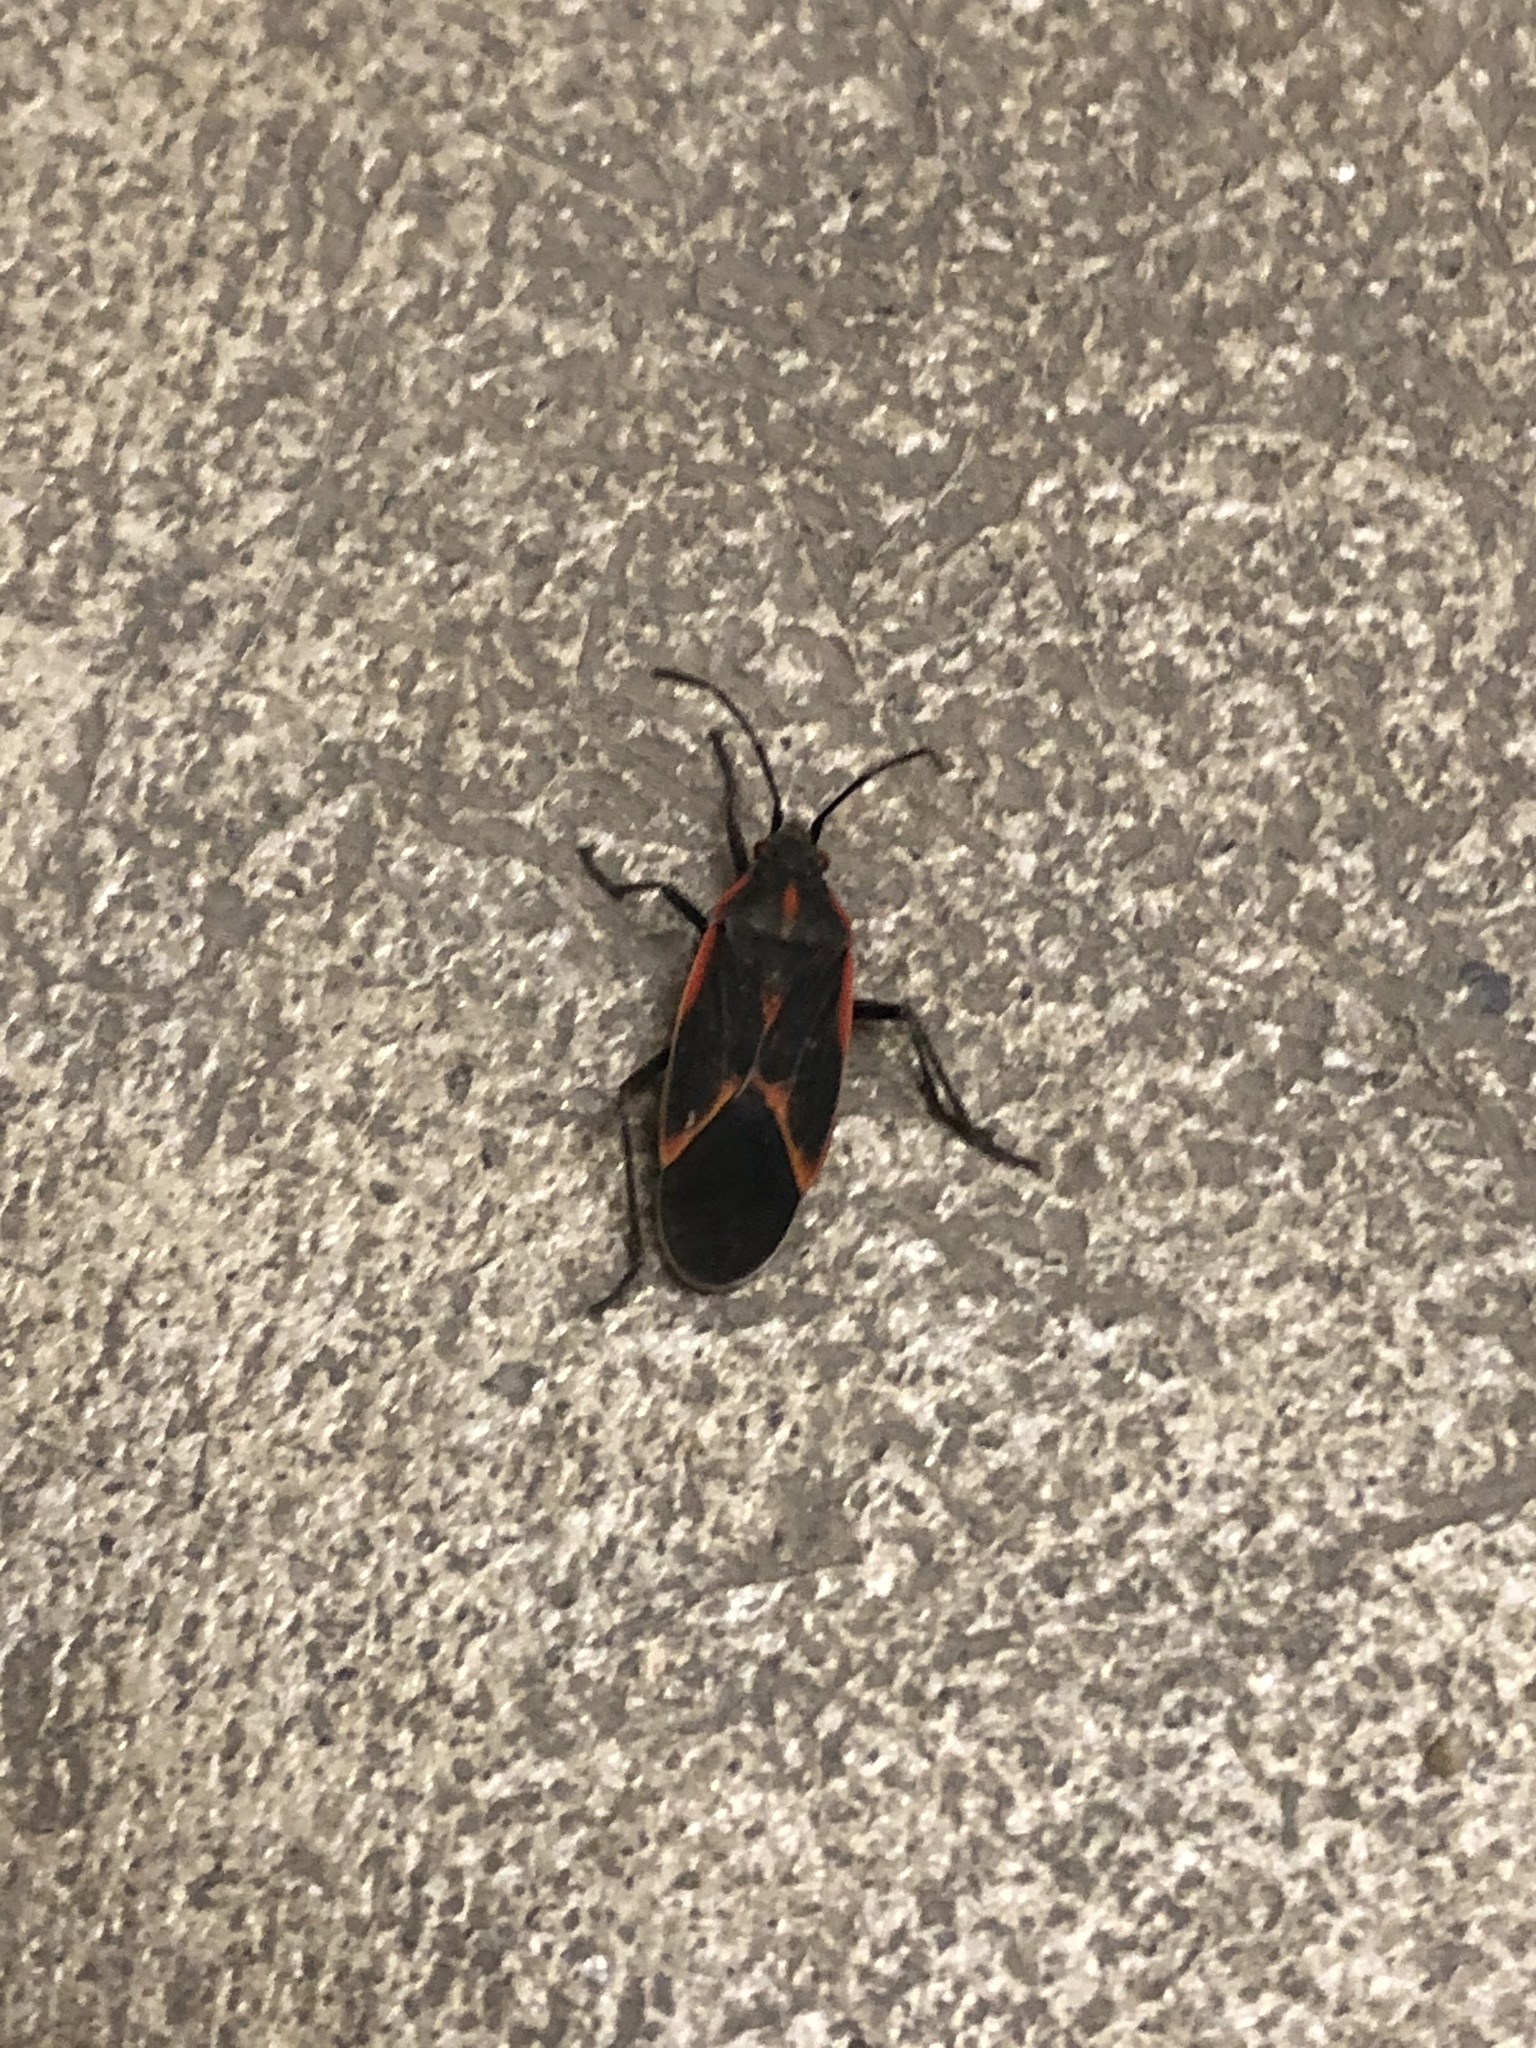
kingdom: Animalia
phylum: Arthropoda
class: Insecta
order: Hemiptera
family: Rhopalidae
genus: Boisea
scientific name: Boisea trivittata
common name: Boxelder bug
